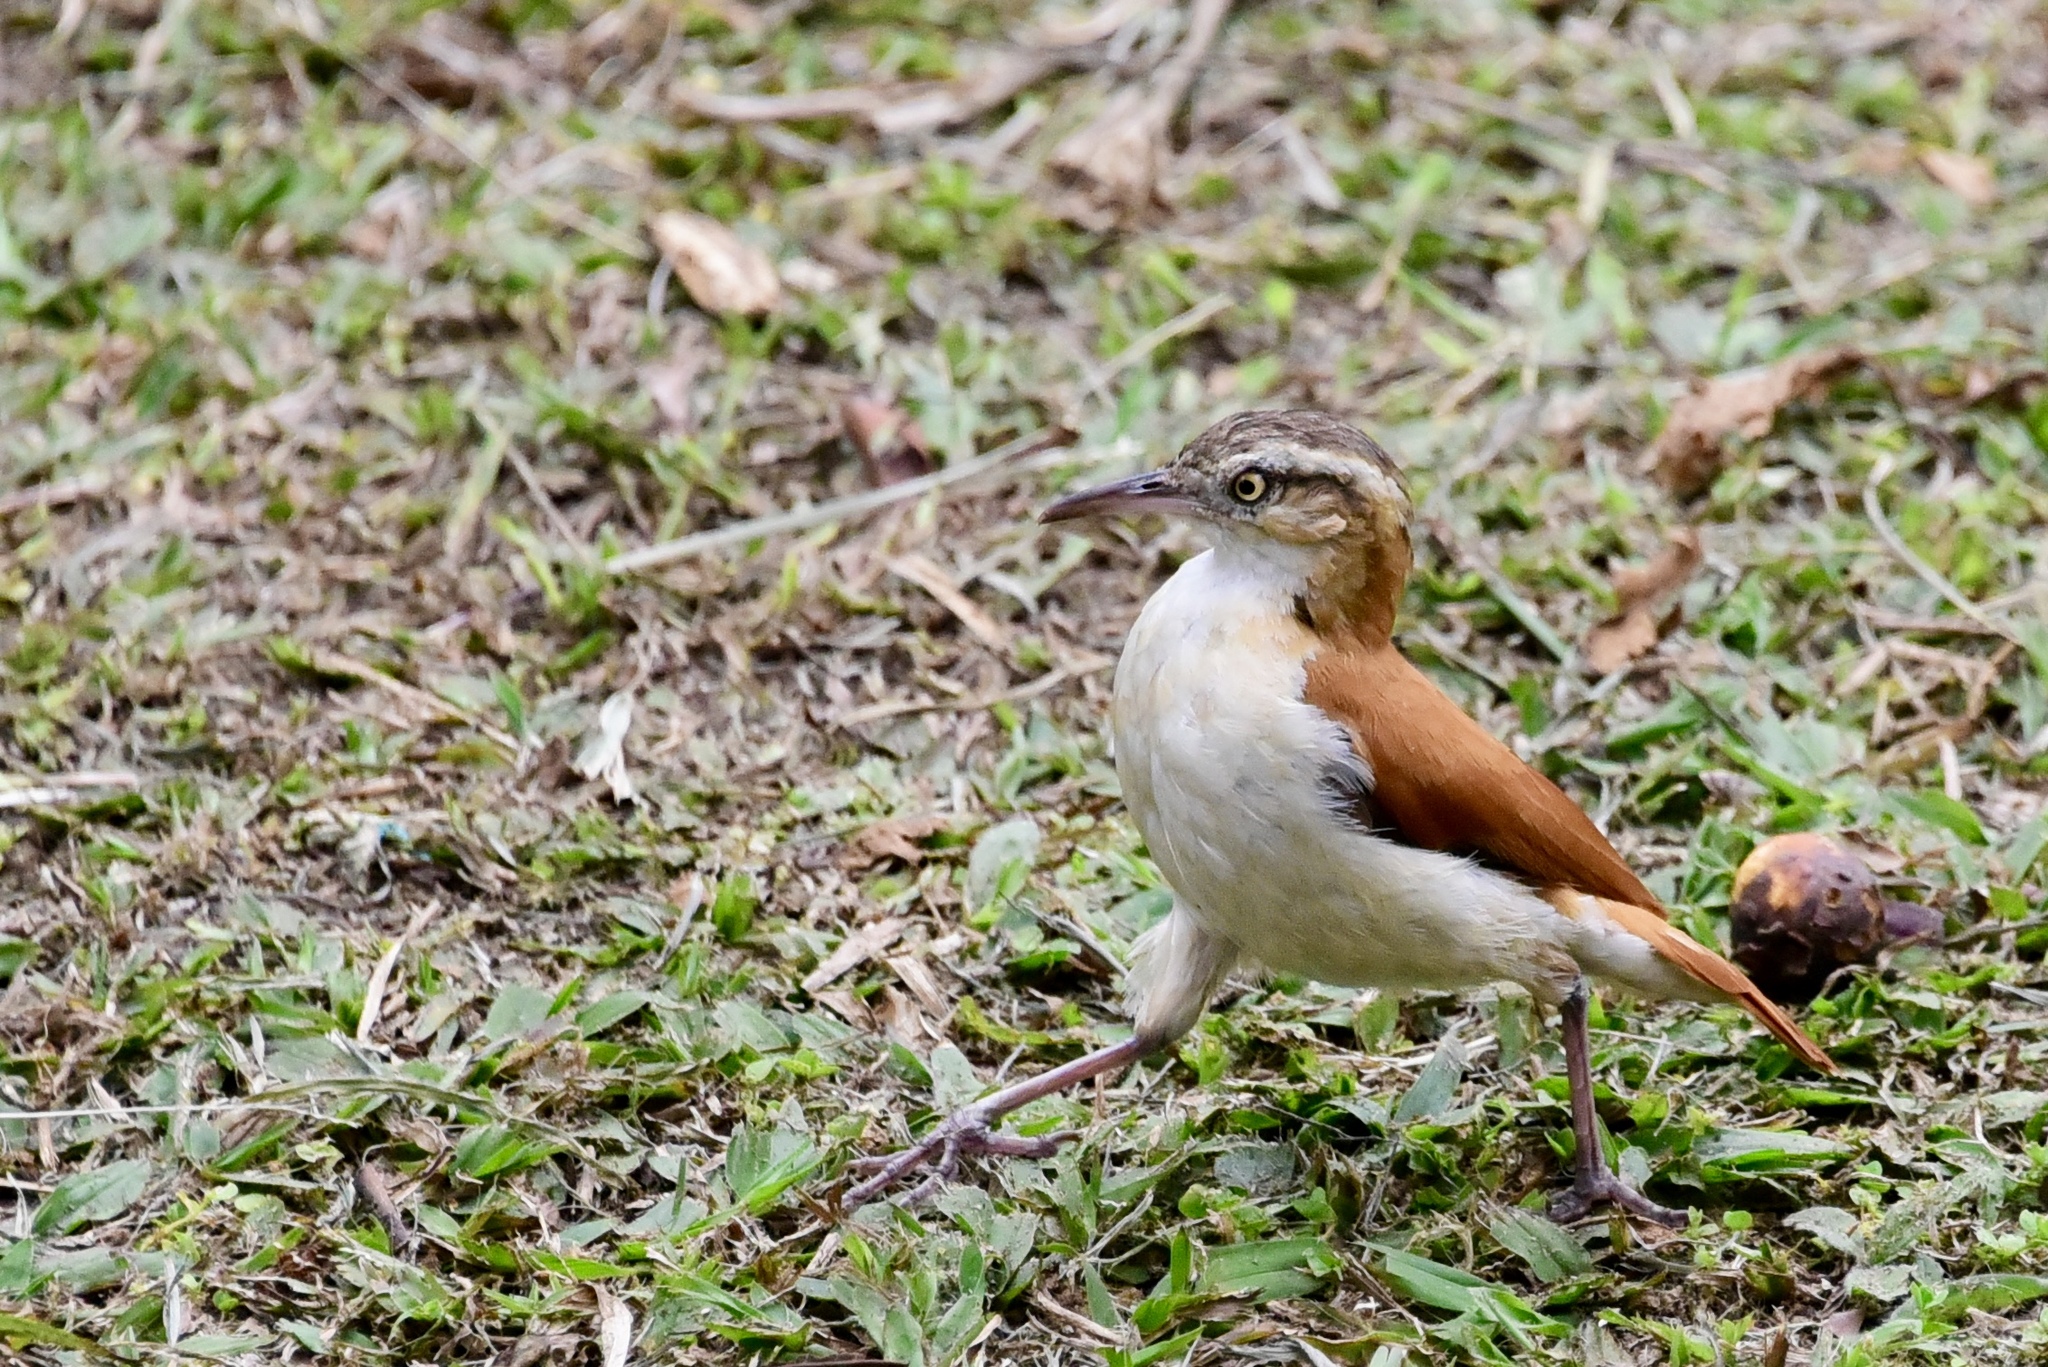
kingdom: Animalia
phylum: Chordata
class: Aves
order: Passeriformes
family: Furnariidae
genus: Furnarius
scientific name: Furnarius leucopus
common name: Pale-legged hornero
